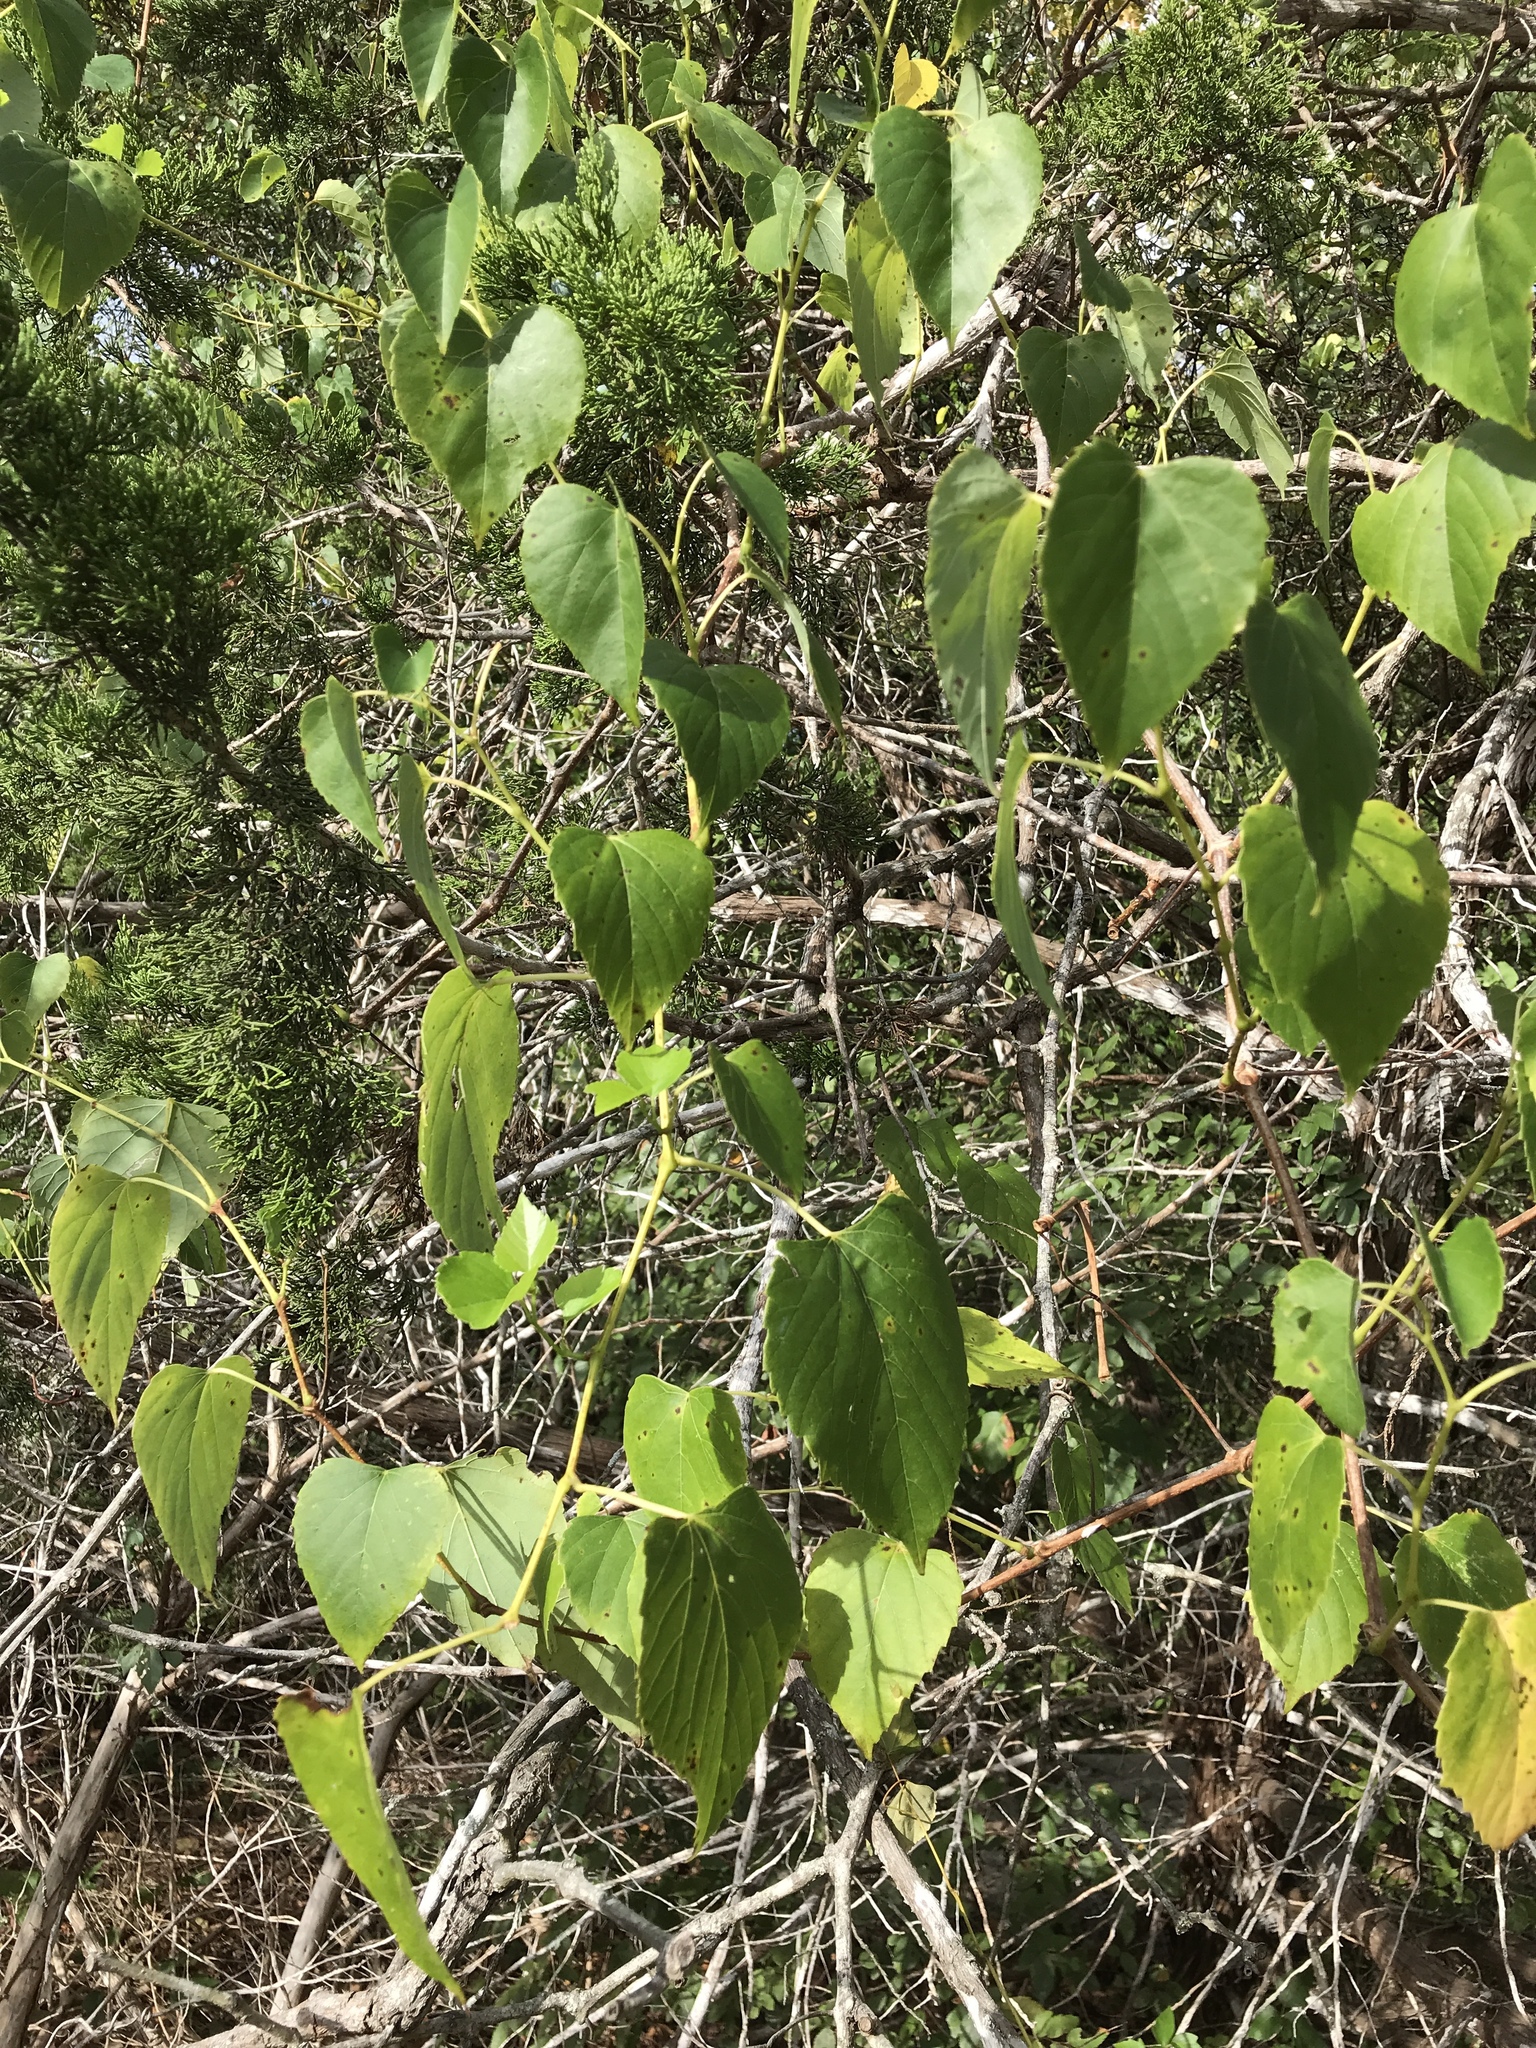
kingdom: Plantae
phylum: Tracheophyta
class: Magnoliopsida
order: Vitales
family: Vitaceae
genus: Ampelopsis
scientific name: Ampelopsis cordata
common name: Heart-leaf ampelopsis
